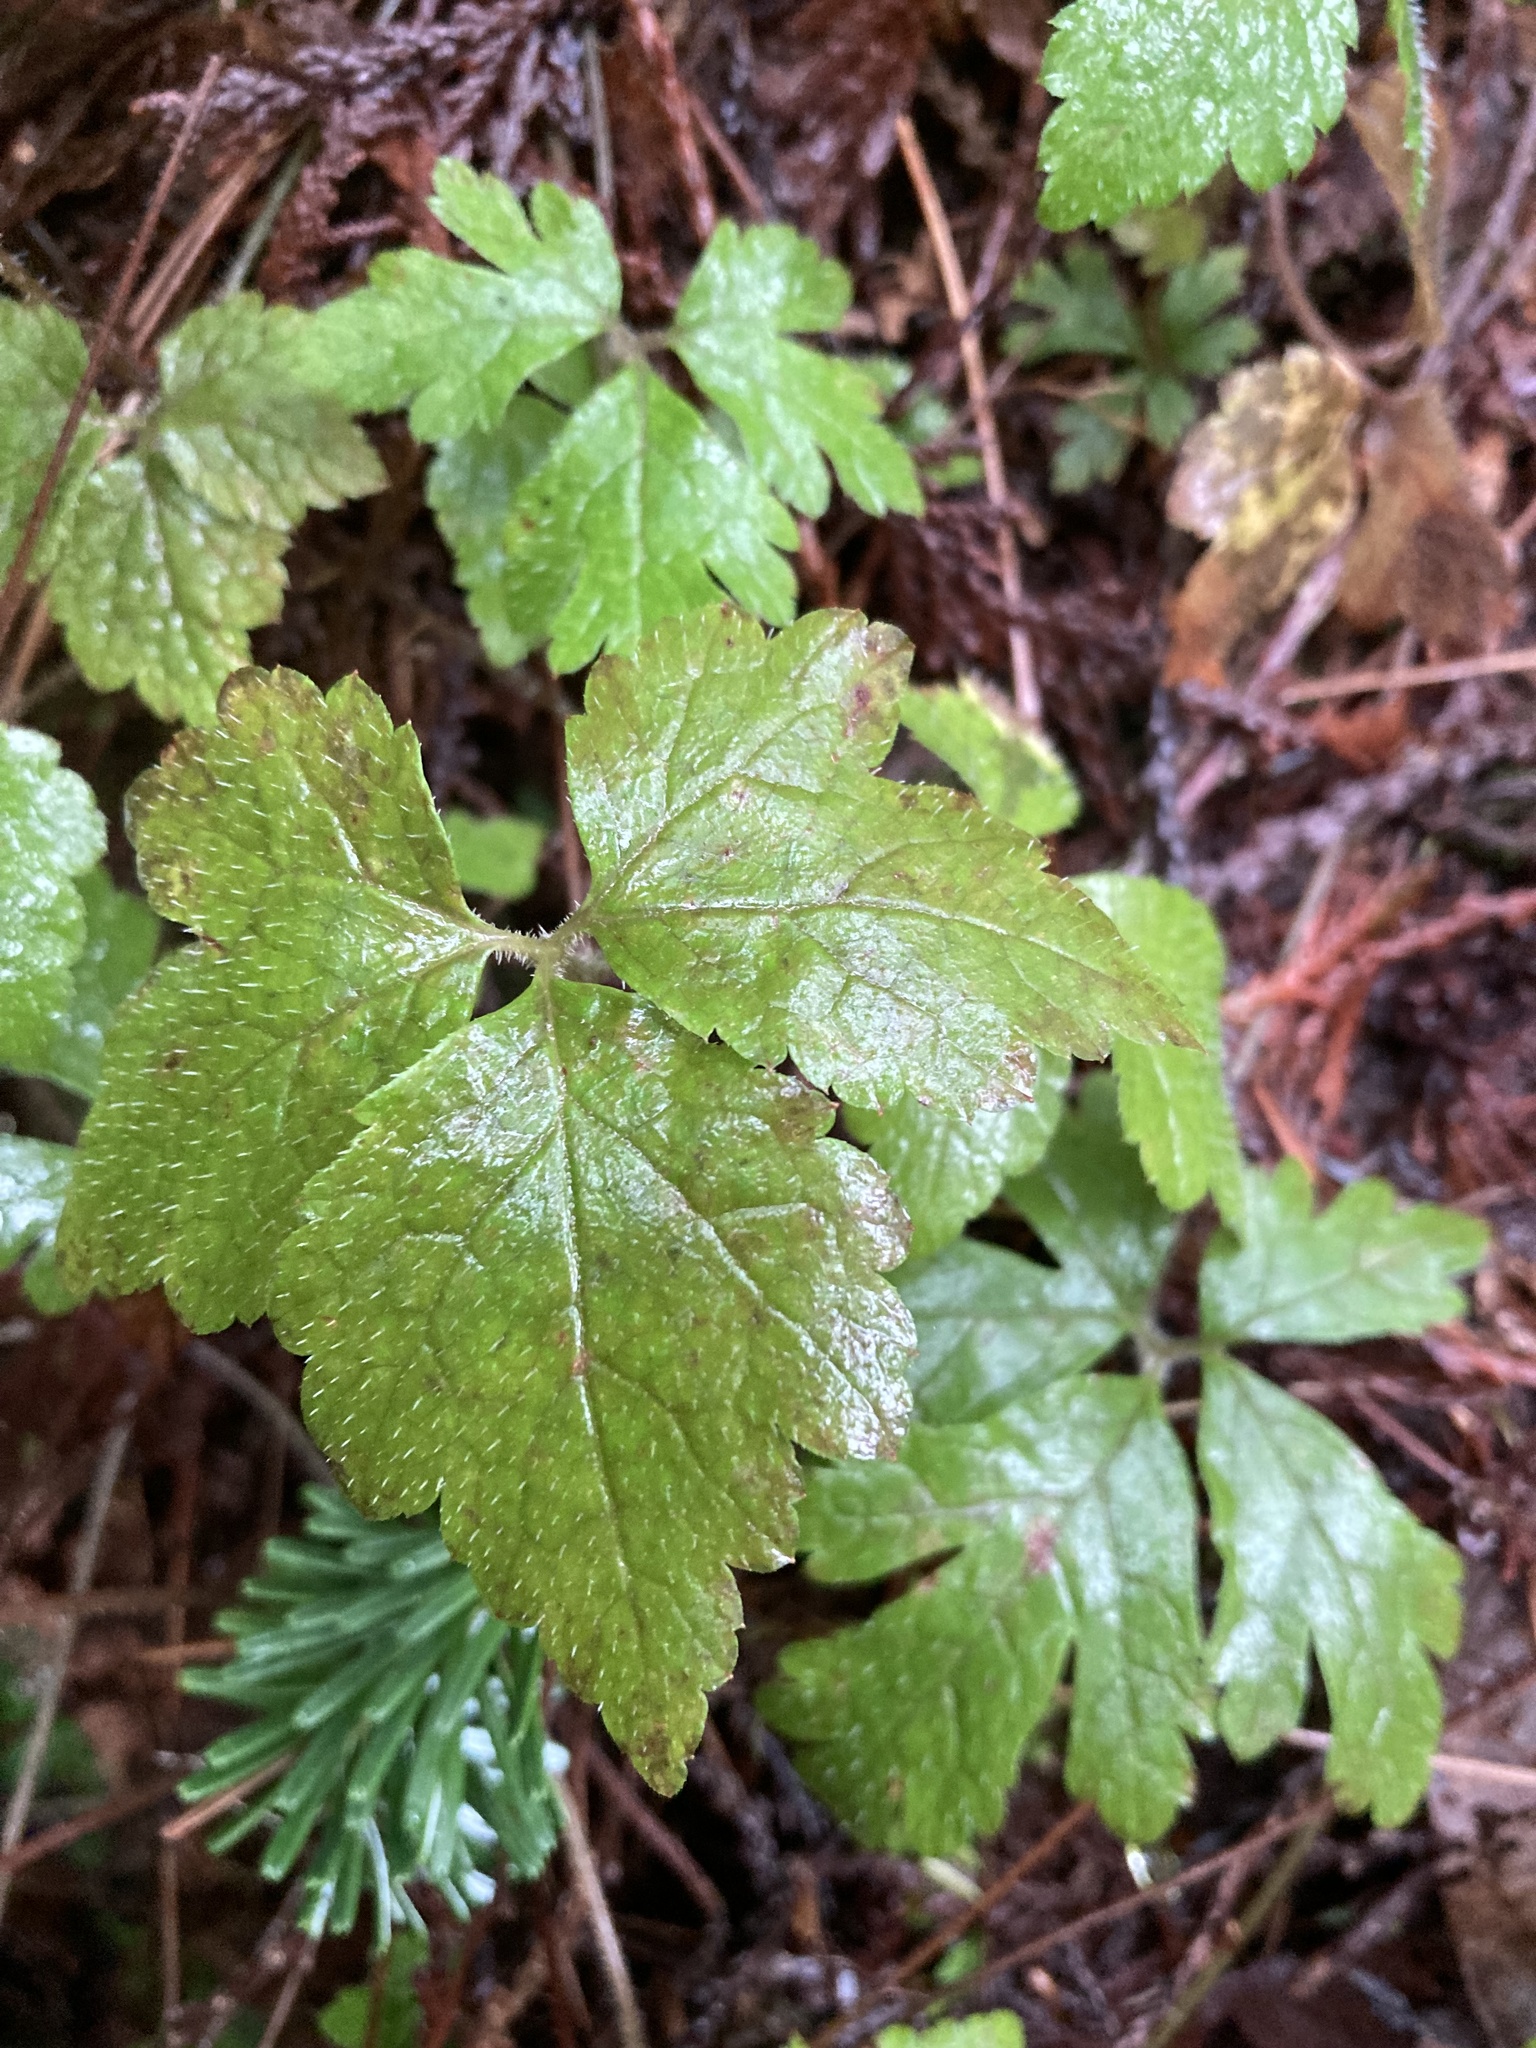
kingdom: Plantae
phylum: Tracheophyta
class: Magnoliopsida
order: Saxifragales
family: Saxifragaceae
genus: Tiarella
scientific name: Tiarella trifoliata
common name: Sugar-scoop
